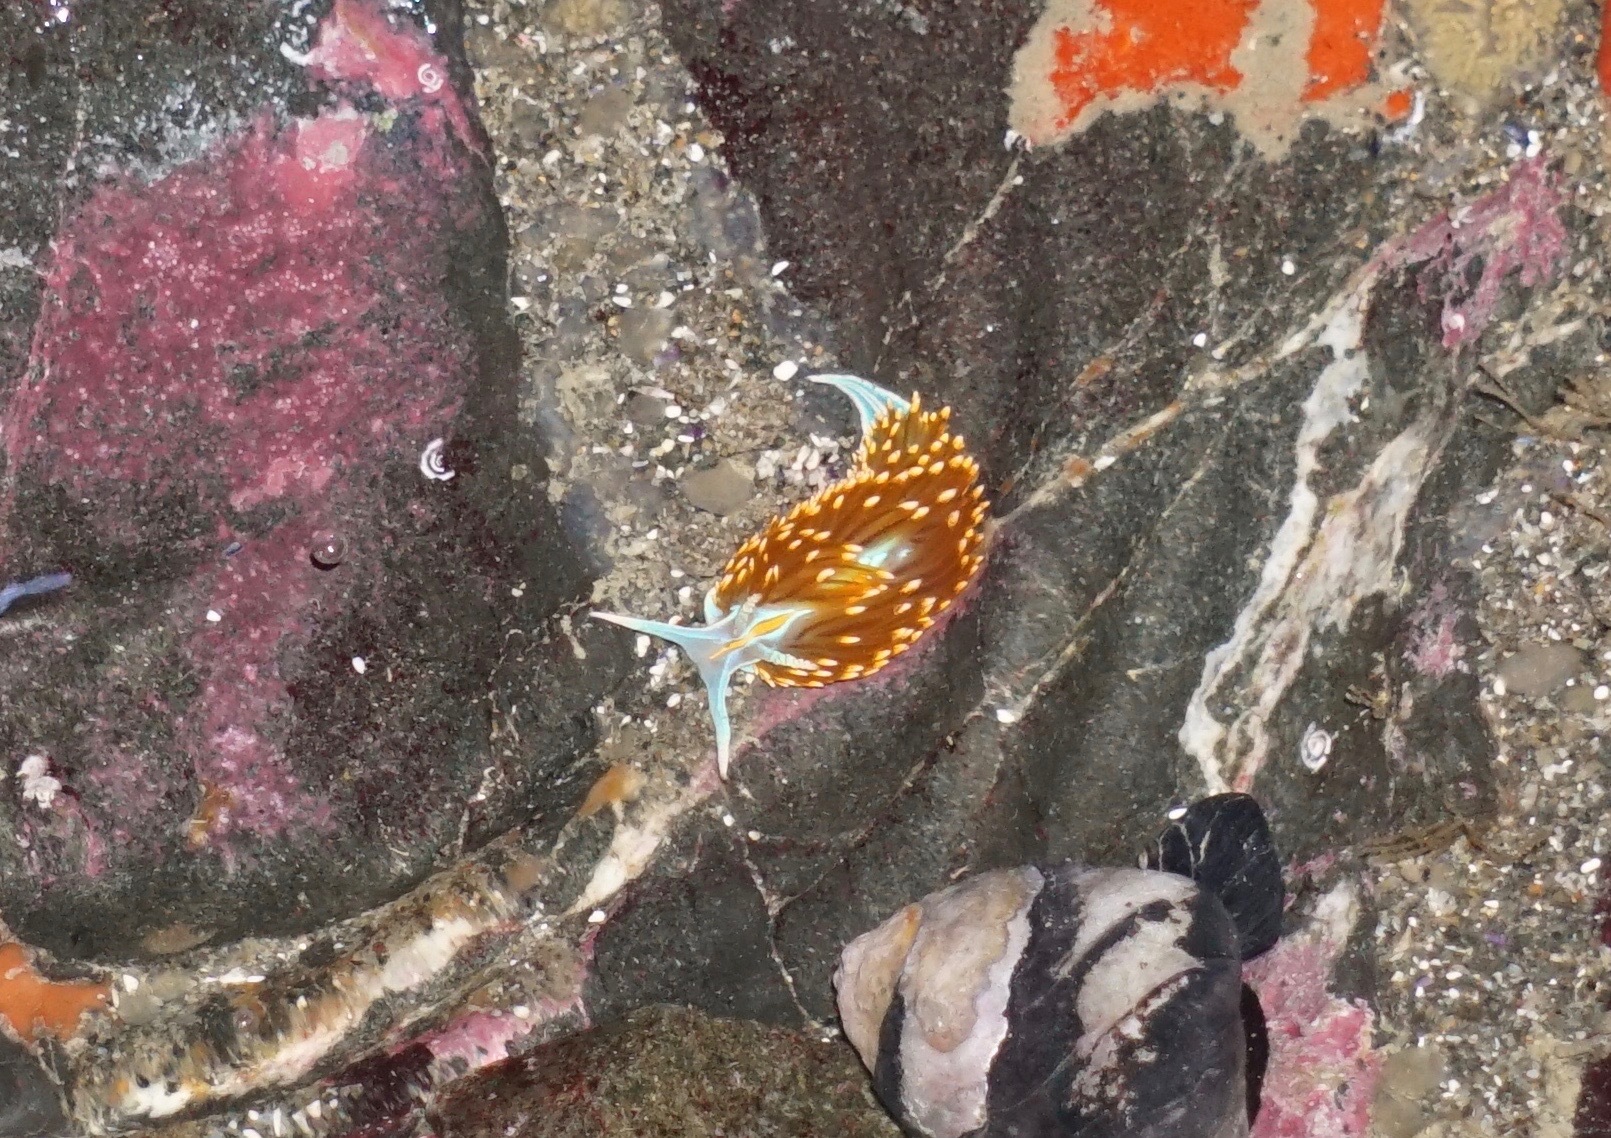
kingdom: Animalia
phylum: Mollusca
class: Gastropoda
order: Nudibranchia
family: Myrrhinidae
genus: Hermissenda
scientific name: Hermissenda opalescens
